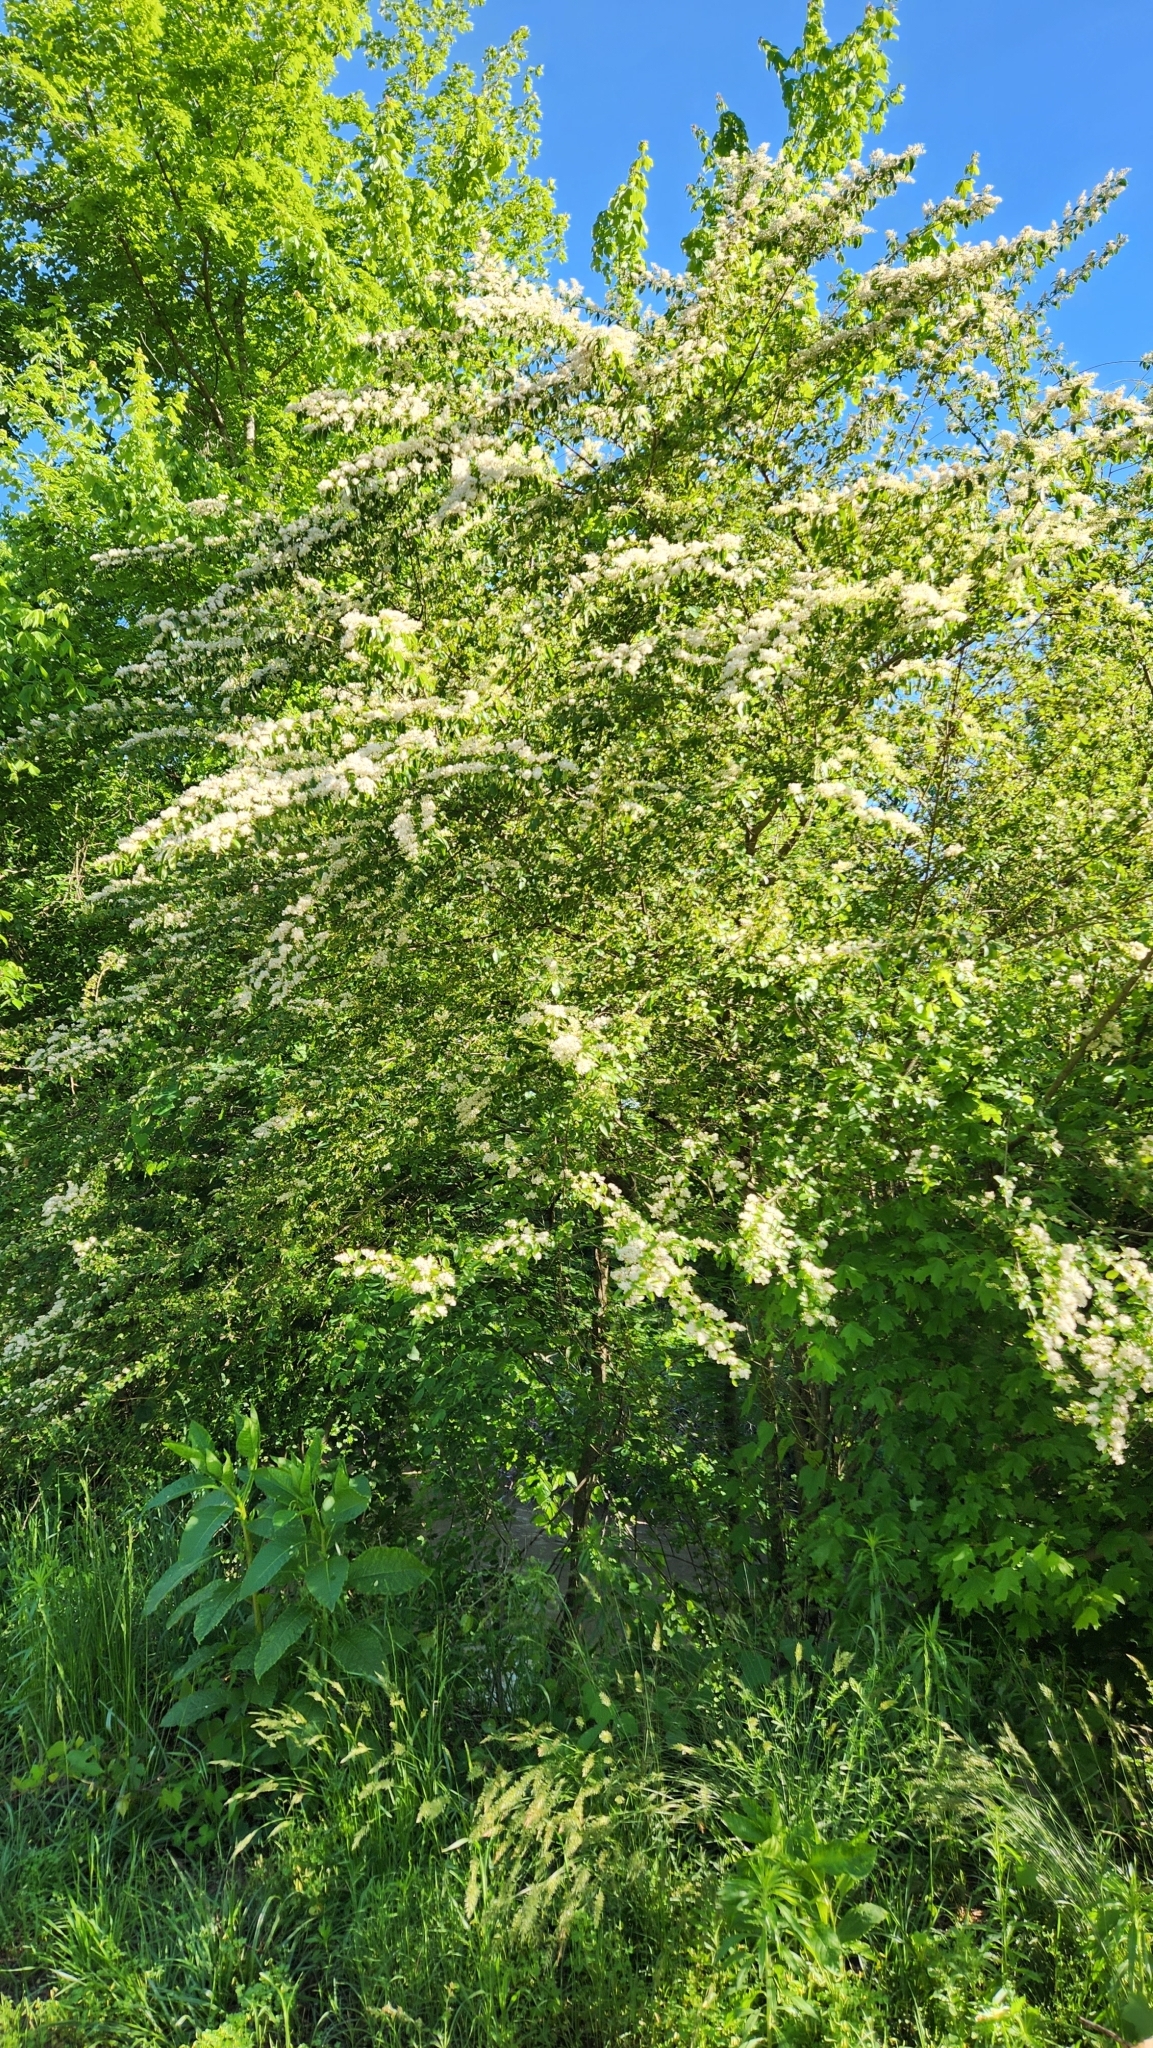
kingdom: Plantae
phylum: Tracheophyta
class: Magnoliopsida
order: Lamiales
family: Oleaceae
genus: Ligustrum
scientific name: Ligustrum sinense
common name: Chinese privet
